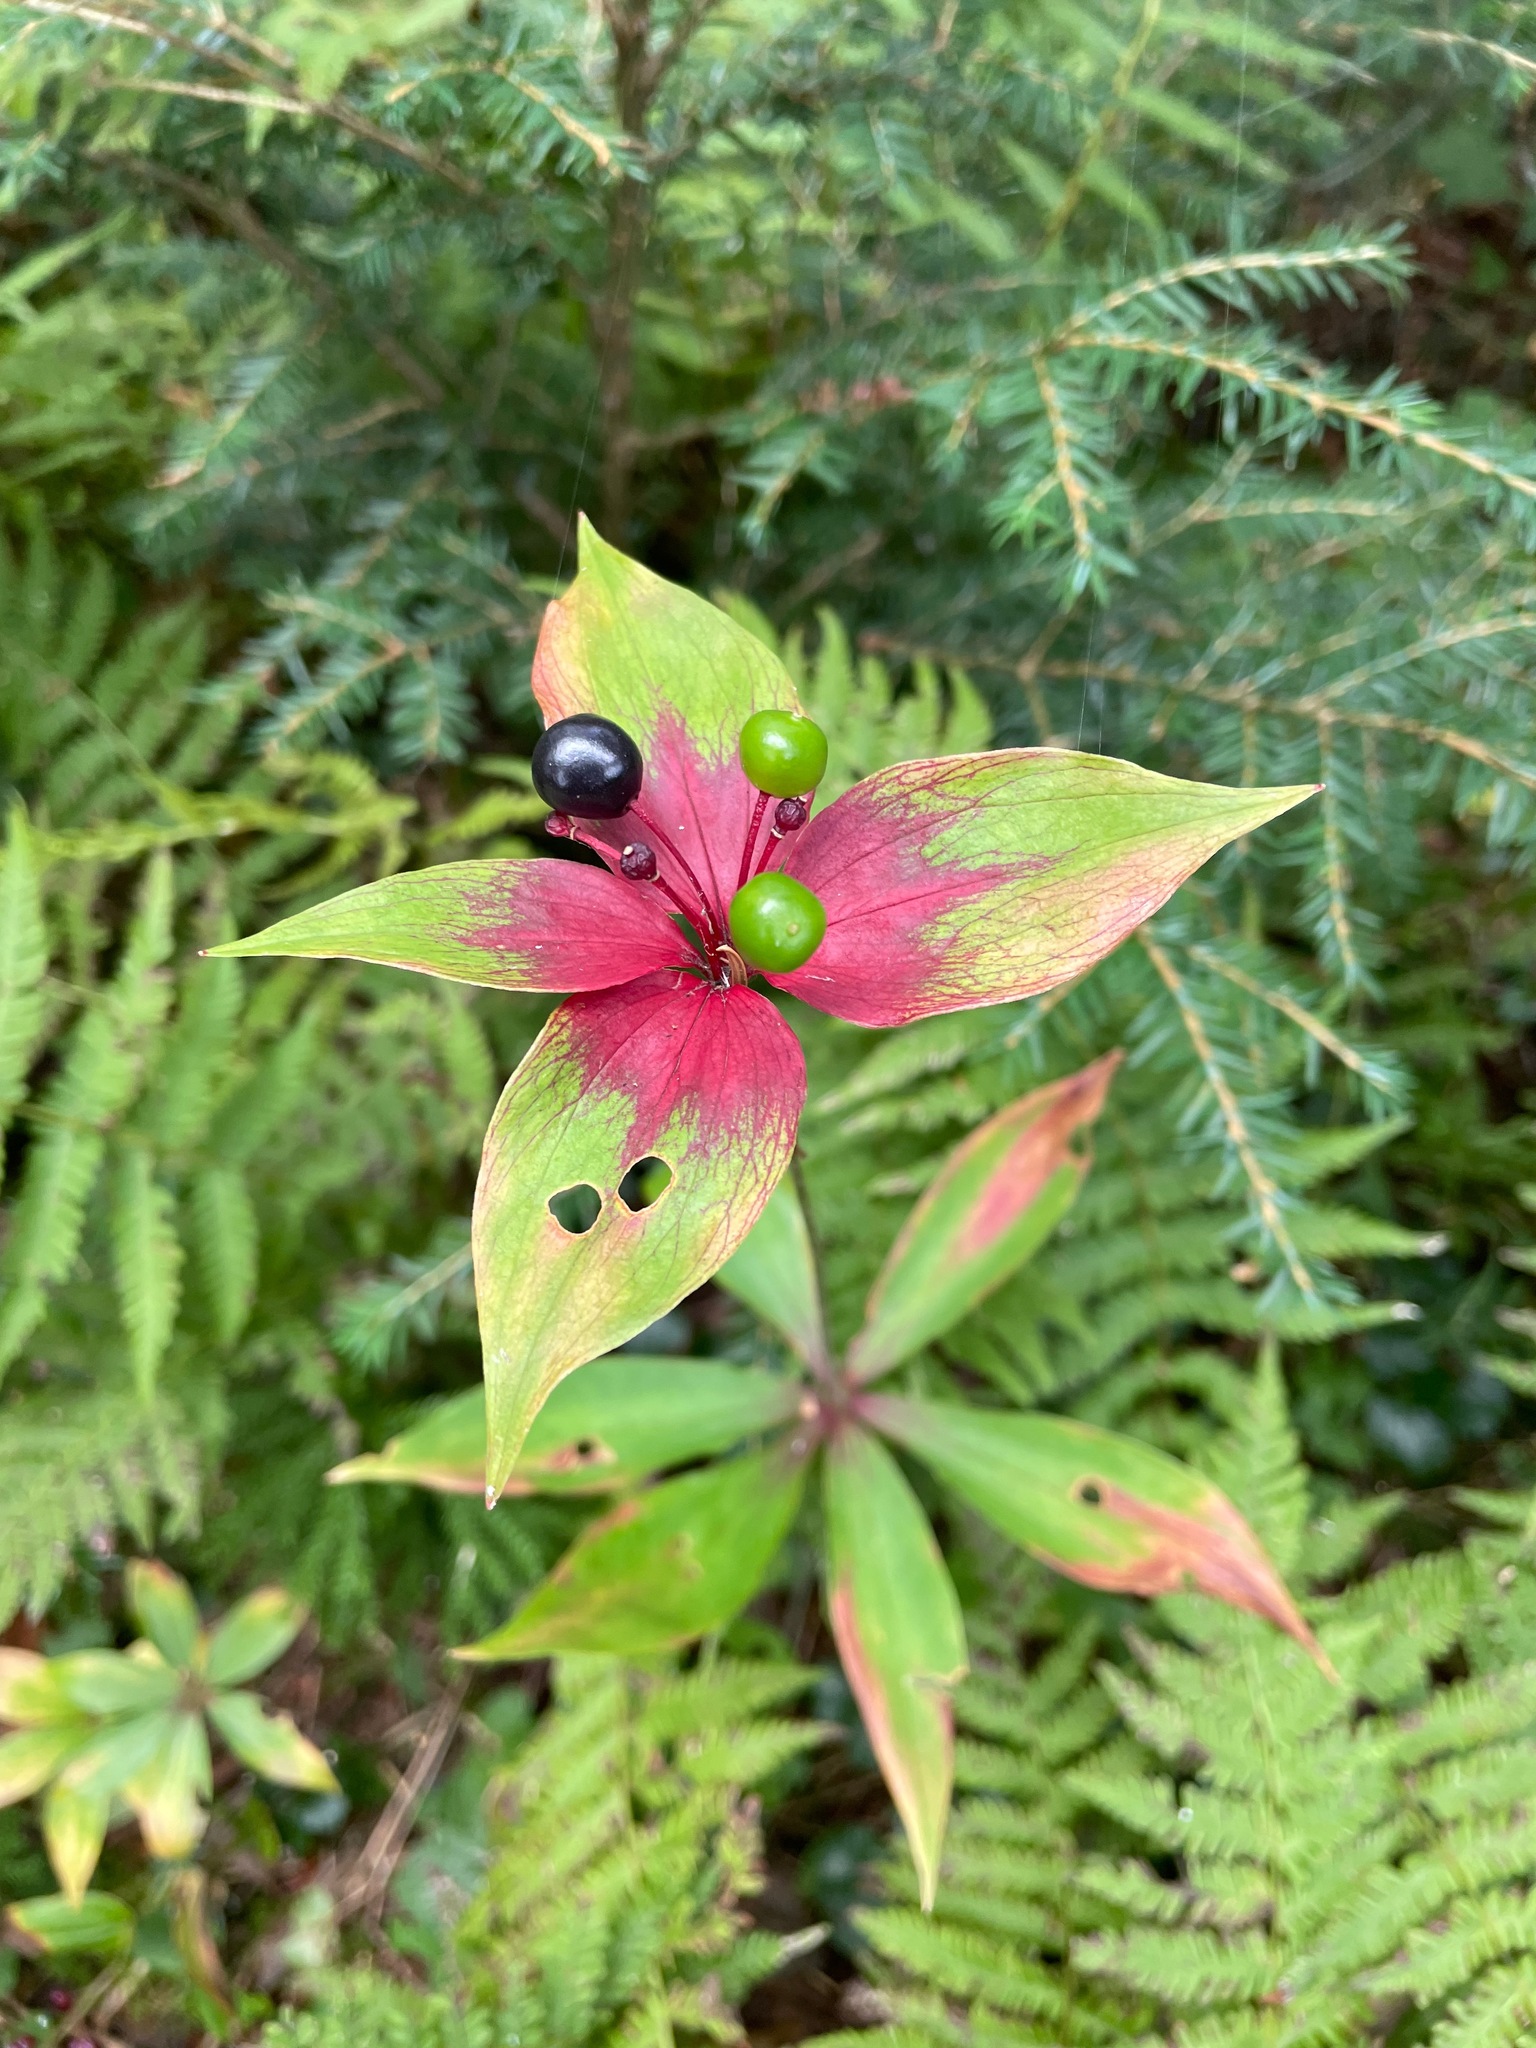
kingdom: Plantae
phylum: Tracheophyta
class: Liliopsida
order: Liliales
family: Liliaceae
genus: Medeola
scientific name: Medeola virginiana
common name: Indian cucumber-root
